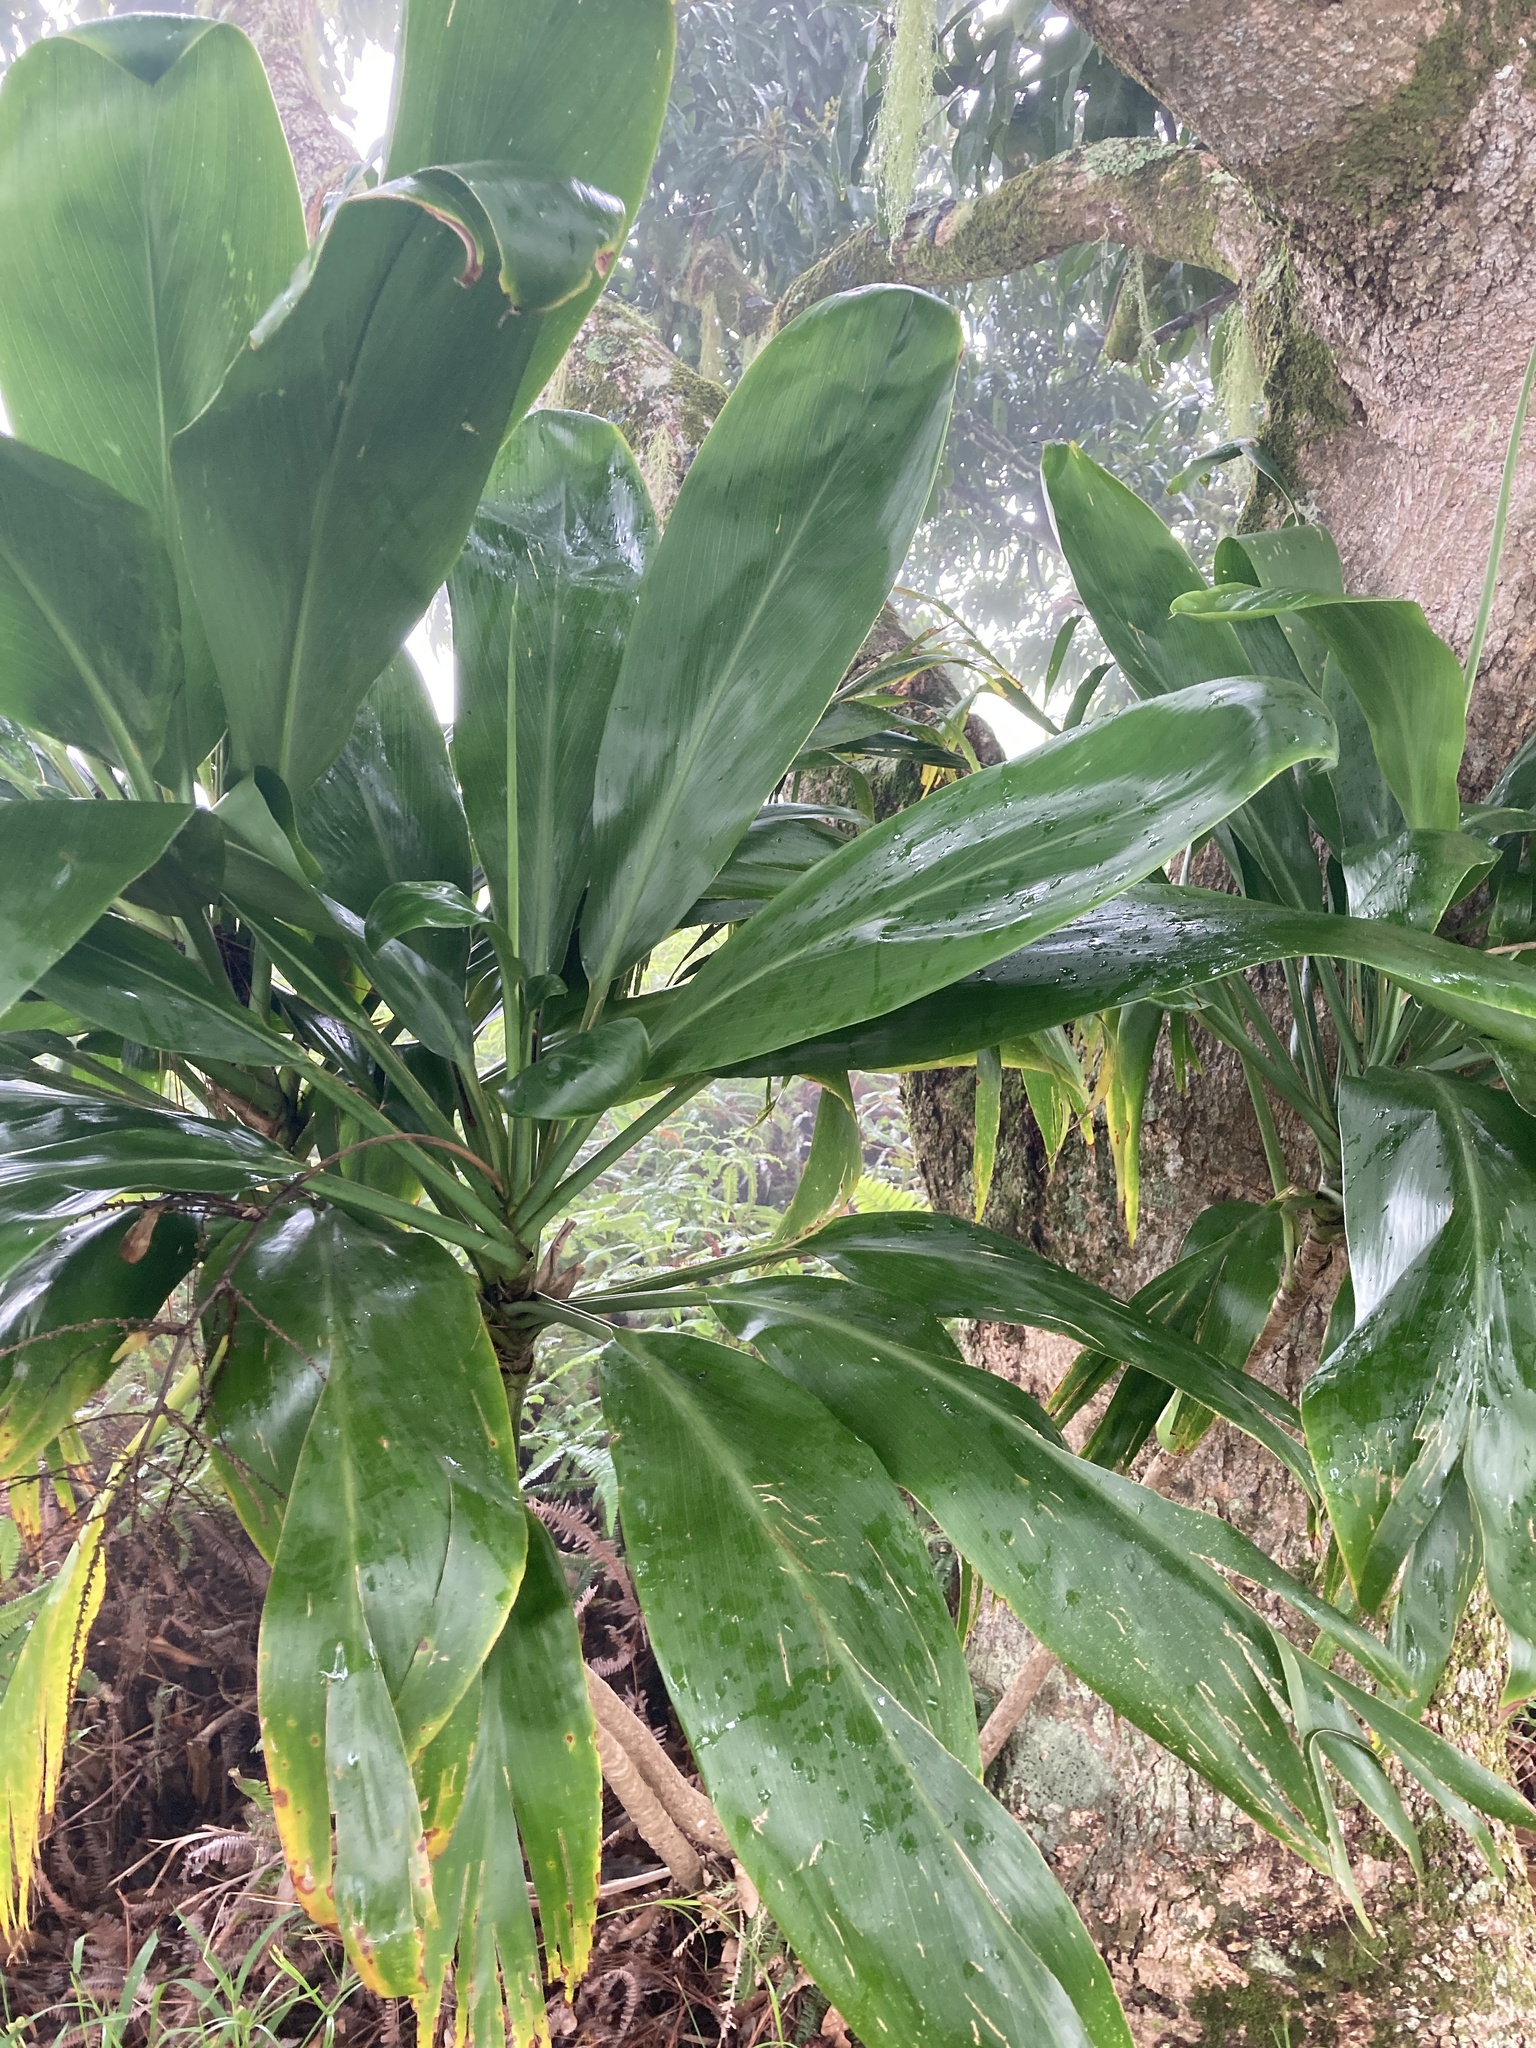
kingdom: Plantae
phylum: Tracheophyta
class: Liliopsida
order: Asparagales
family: Asparagaceae
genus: Cordyline
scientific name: Cordyline fruticosa
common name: Good-luck-plant
